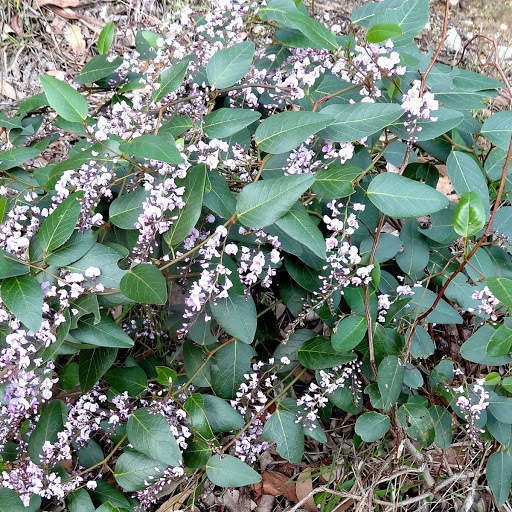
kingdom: Plantae
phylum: Tracheophyta
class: Magnoliopsida
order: Fabales
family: Fabaceae
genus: Hardenbergia
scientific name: Hardenbergia violacea
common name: Coral-pea
